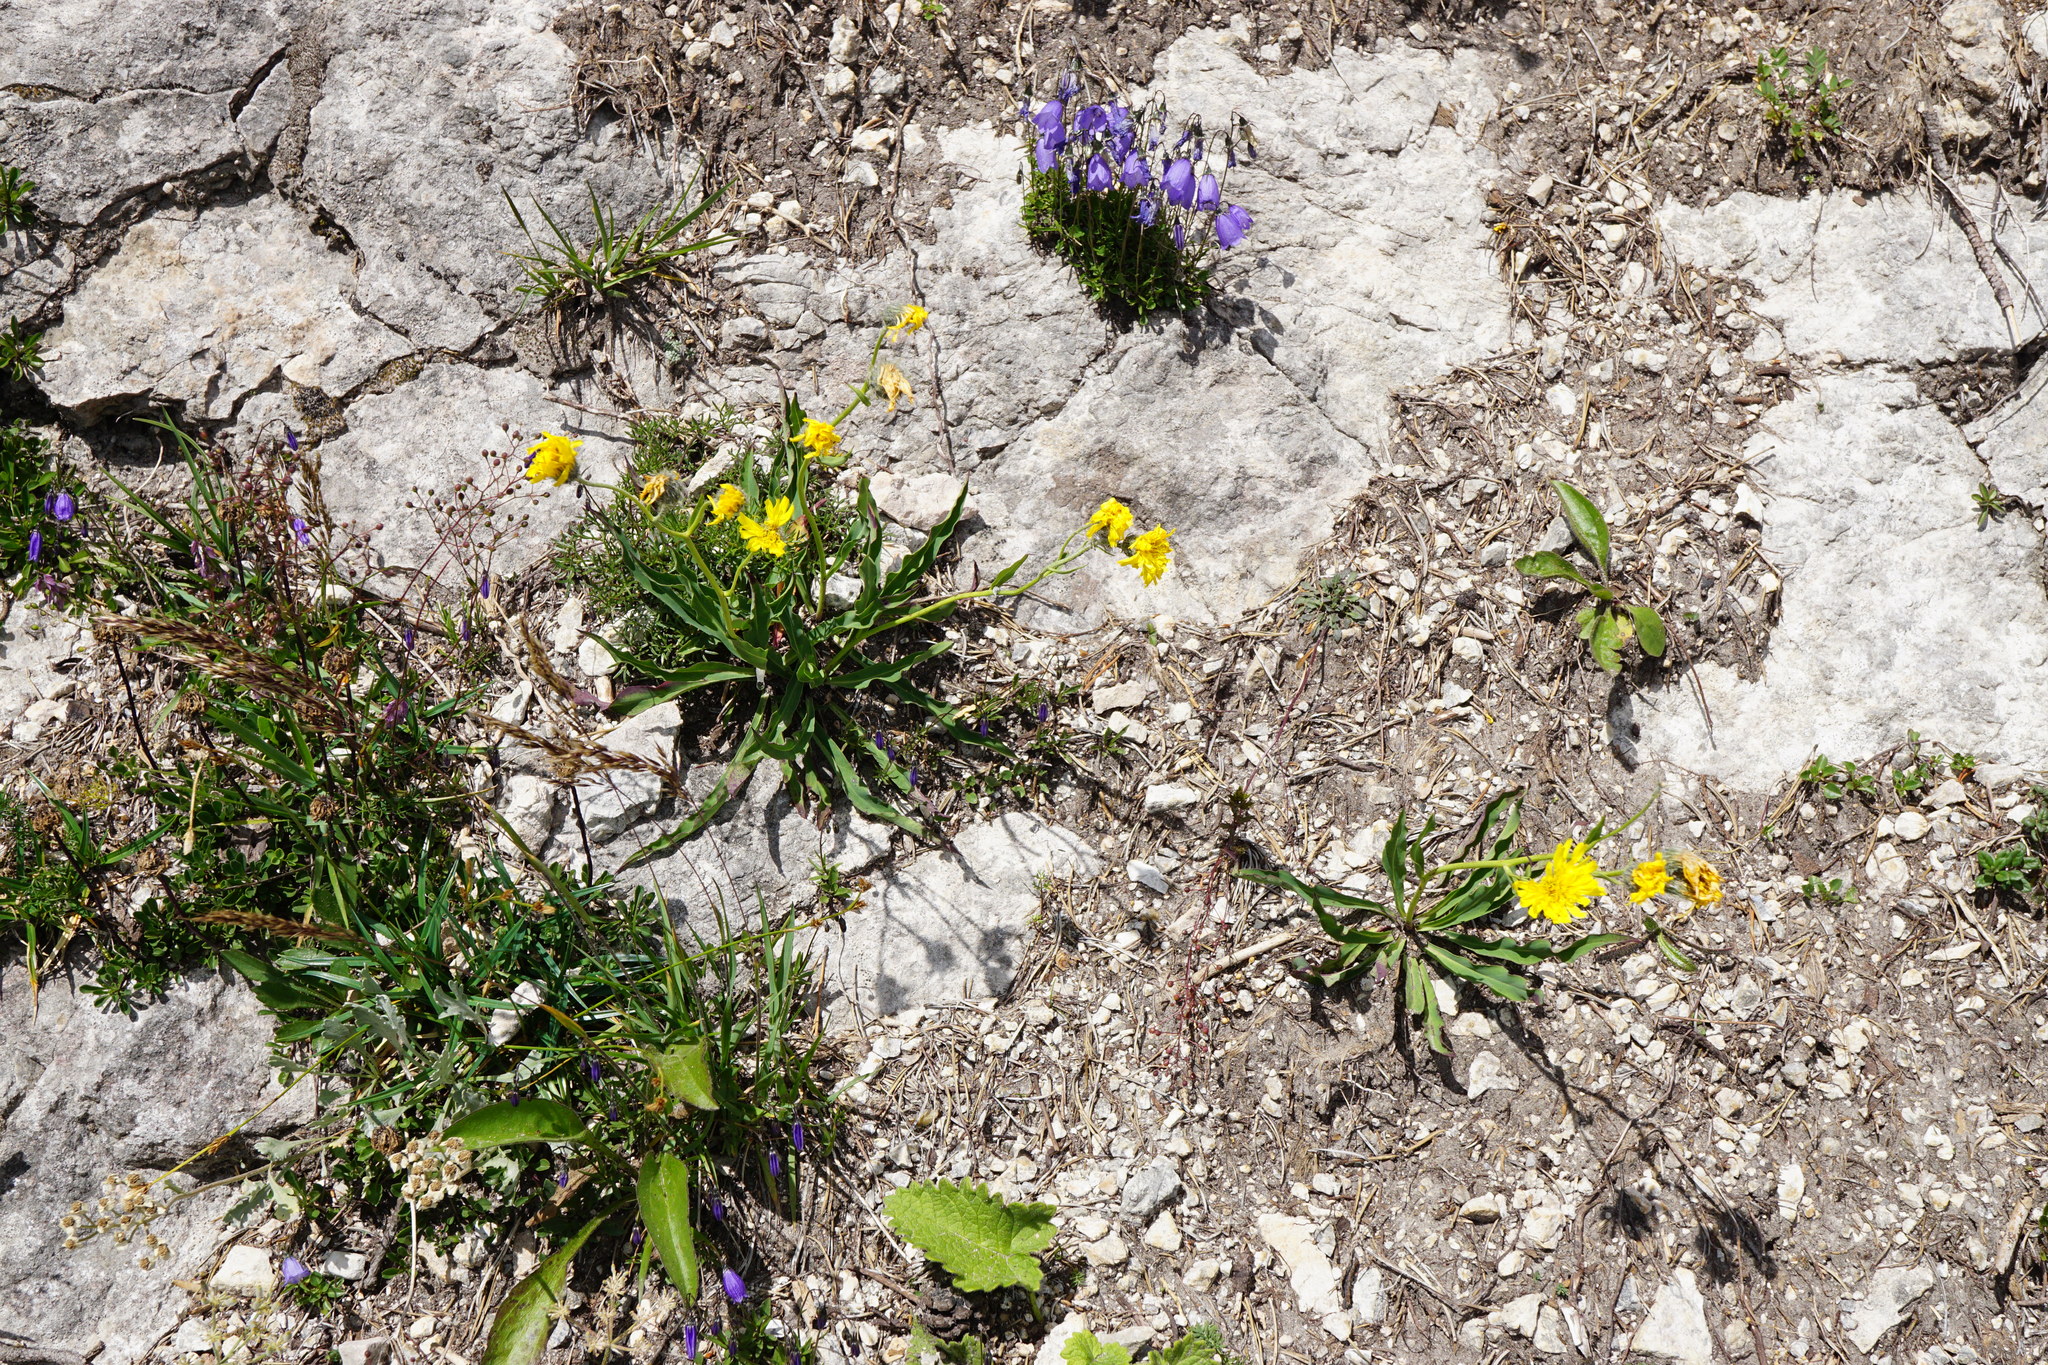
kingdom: Plantae
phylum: Tracheophyta
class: Magnoliopsida
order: Asterales
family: Asteraceae
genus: Hieracium
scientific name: Hieracium bupleuroides
